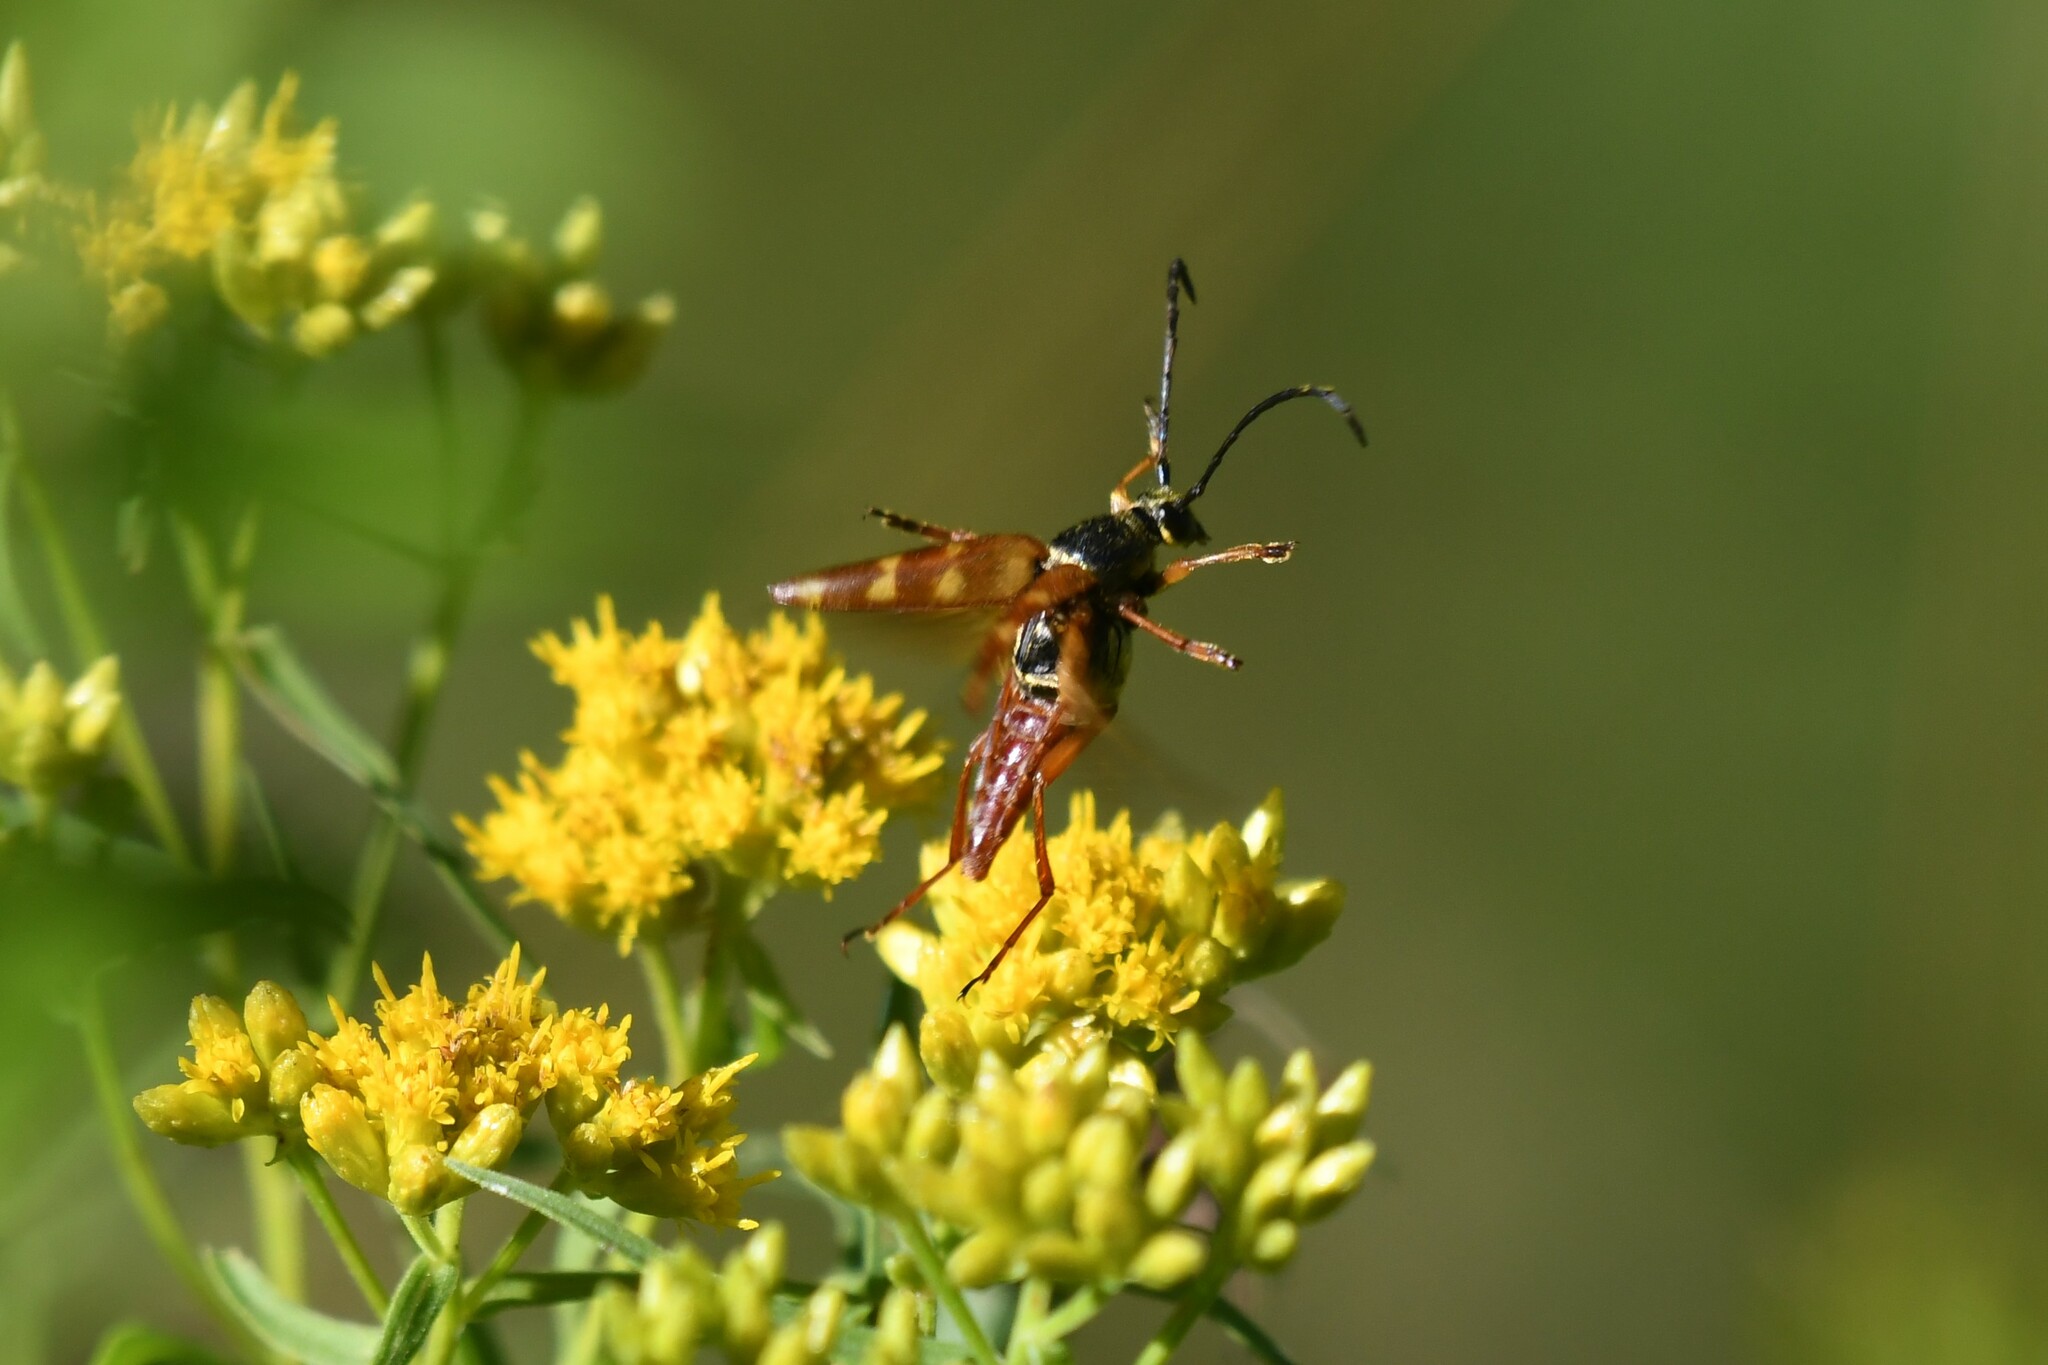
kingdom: Animalia
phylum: Arthropoda
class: Insecta
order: Coleoptera
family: Cerambycidae
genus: Typocerus
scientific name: Typocerus velutinus
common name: Banded longhorn beetle
